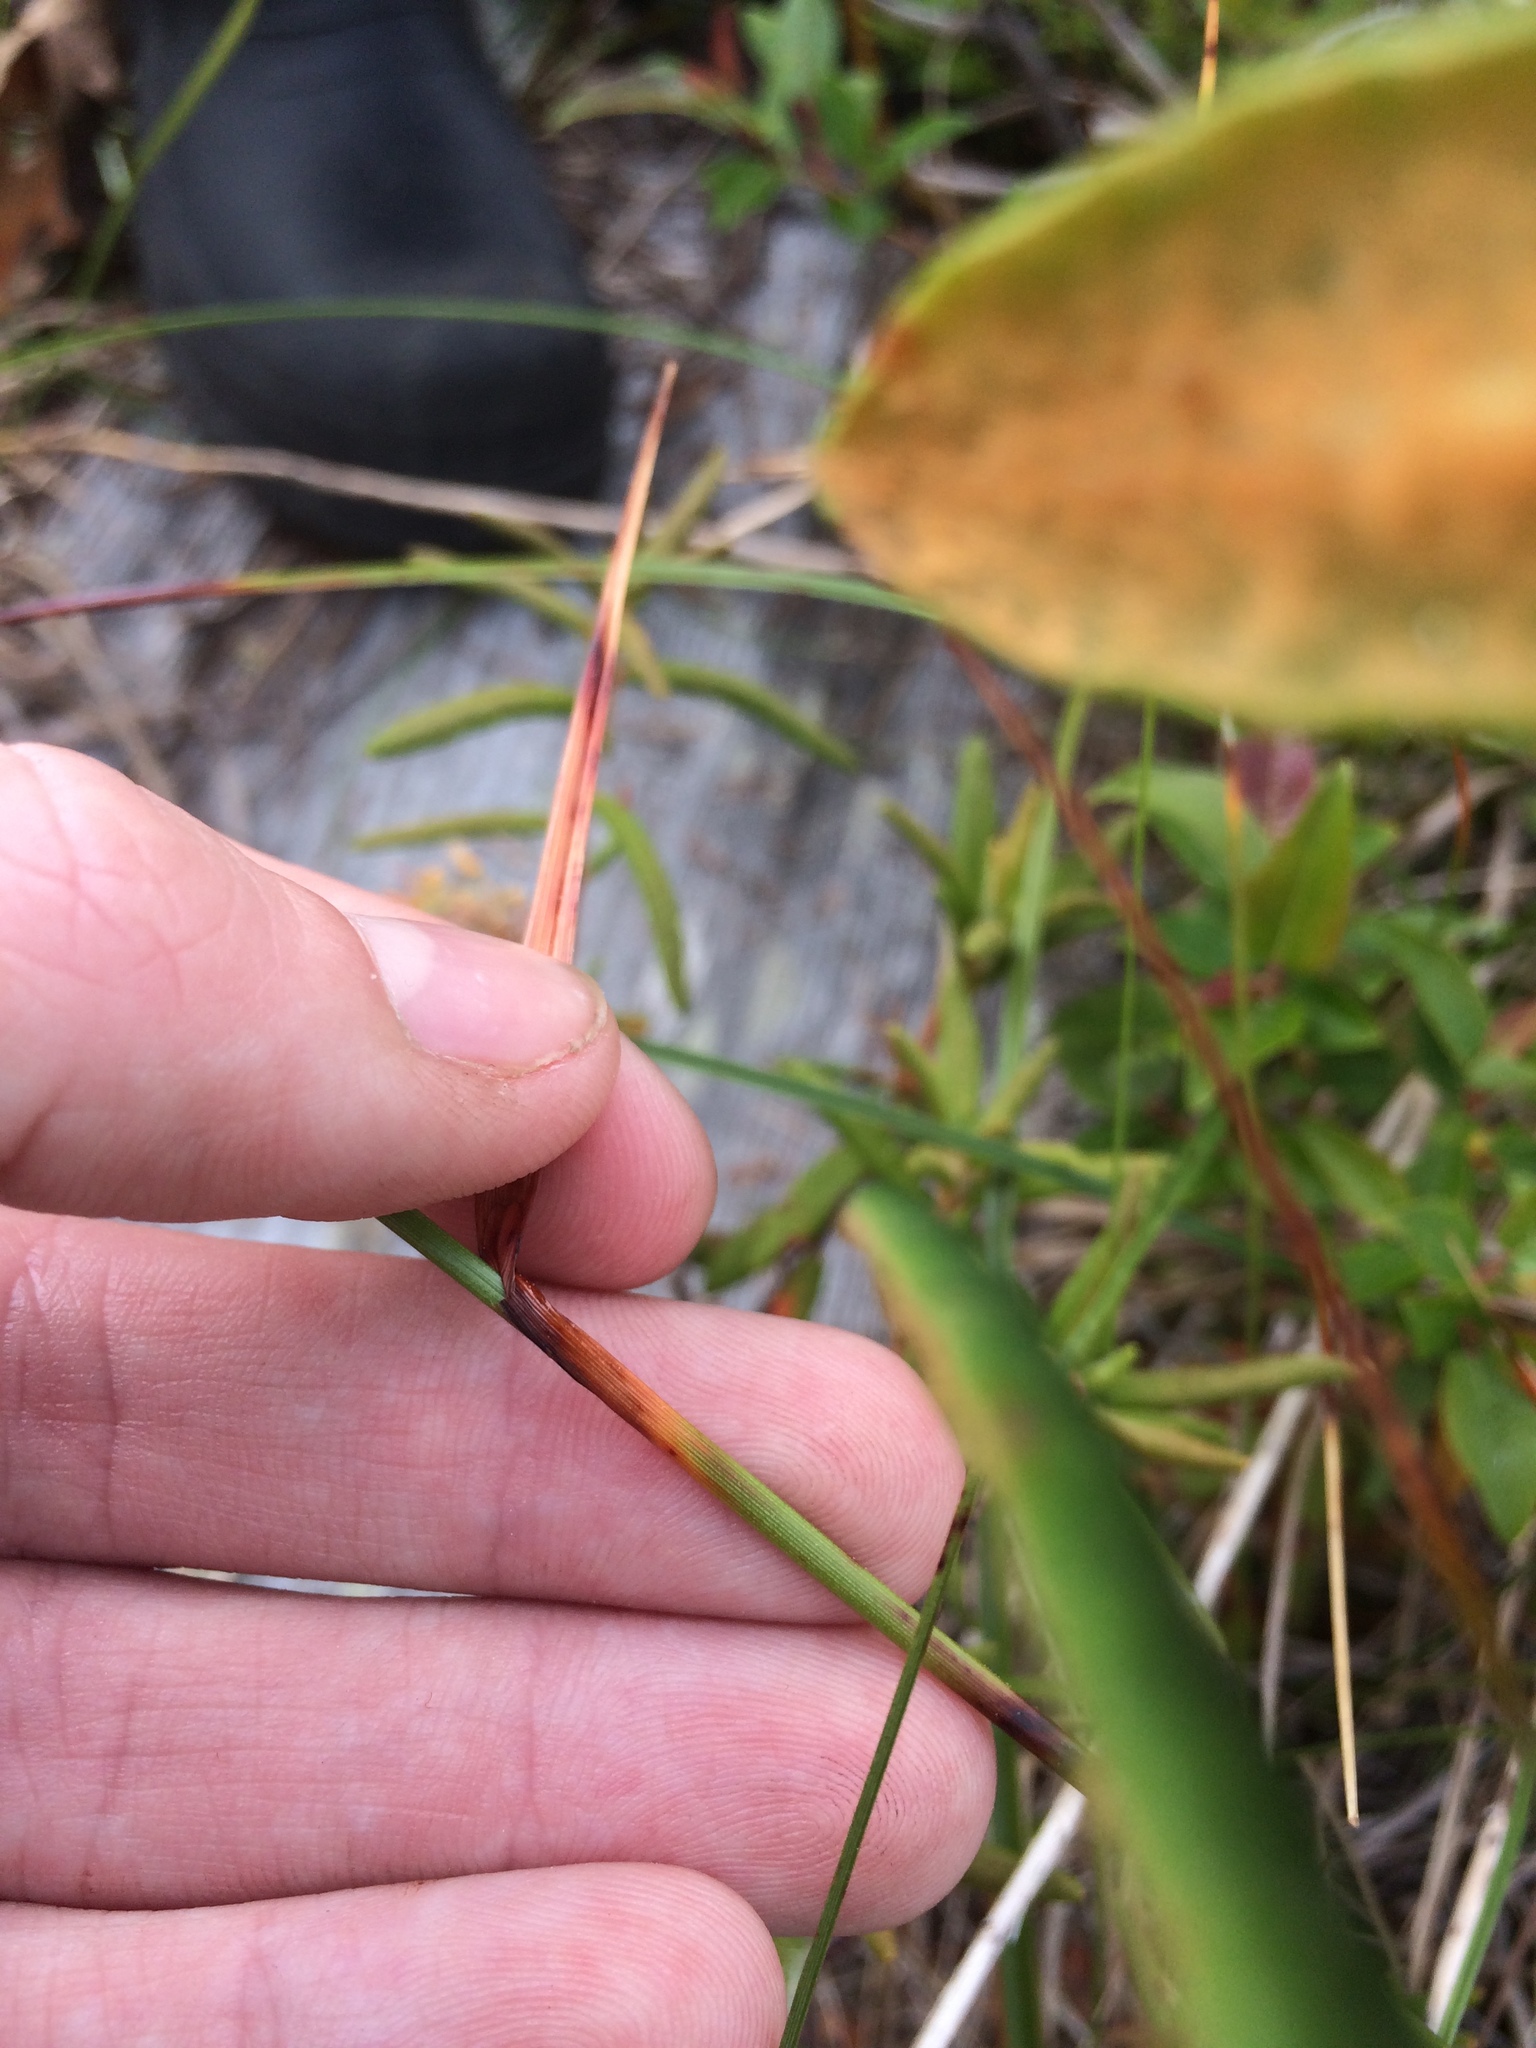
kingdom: Plantae
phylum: Tracheophyta
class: Liliopsida
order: Poales
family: Cyperaceae
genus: Eriophorum
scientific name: Eriophorum angustifolium
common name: Common cottongrass
